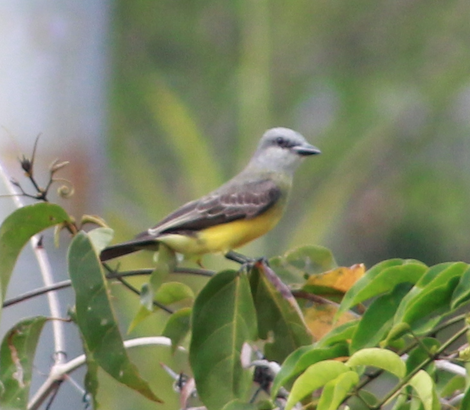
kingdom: Animalia
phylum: Chordata
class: Aves
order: Passeriformes
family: Tyrannidae
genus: Tyrannus
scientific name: Tyrannus melancholicus
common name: Tropical kingbird
